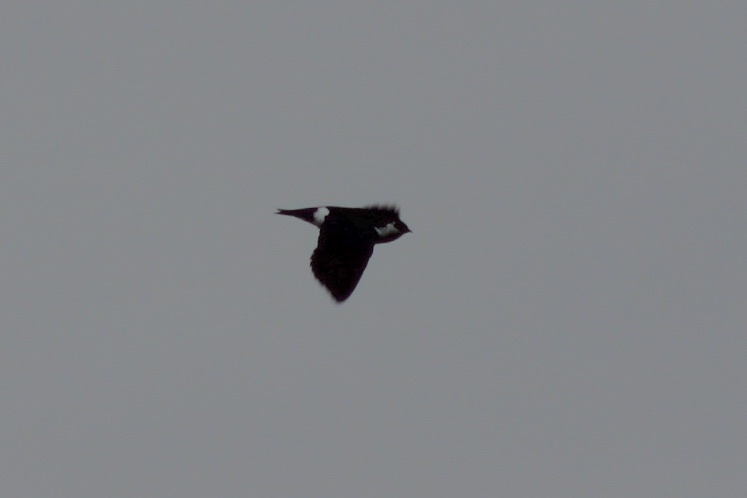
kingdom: Animalia
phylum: Chordata
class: Aves
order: Passeriformes
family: Hirundinidae
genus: Tachycineta
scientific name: Tachycineta thalassina
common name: Violet-green swallow
